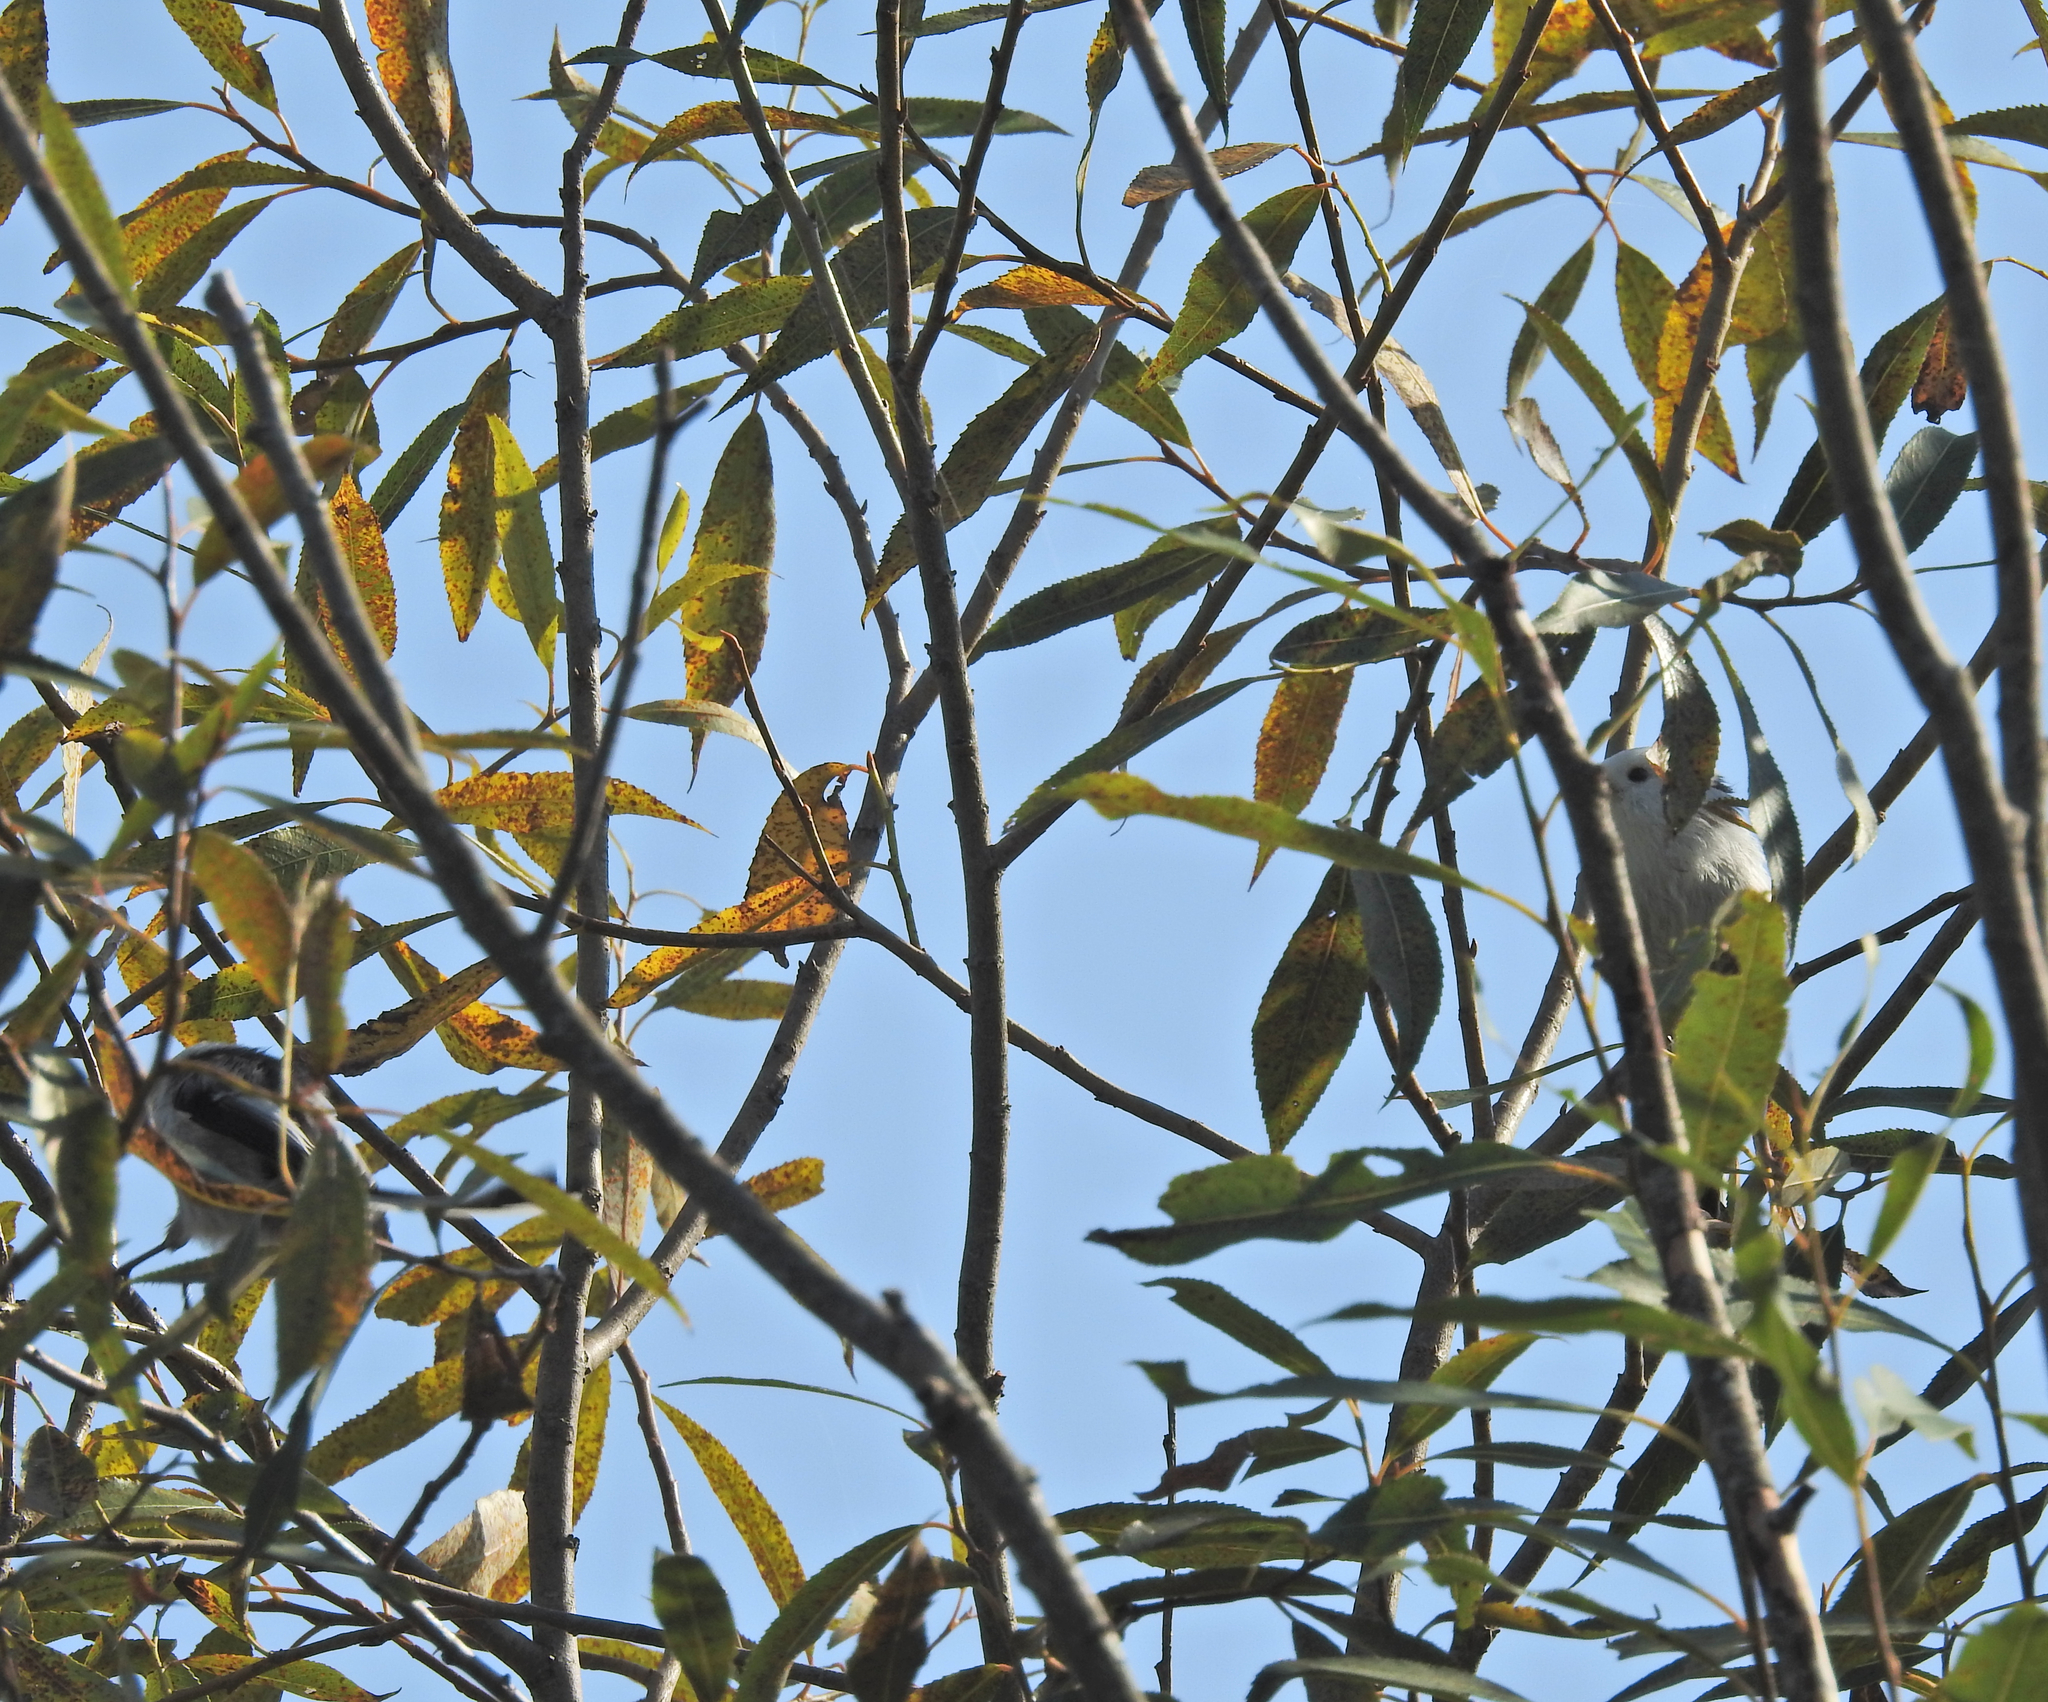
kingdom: Animalia
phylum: Chordata
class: Aves
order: Passeriformes
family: Aegithalidae
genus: Aegithalos
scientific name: Aegithalos caudatus
